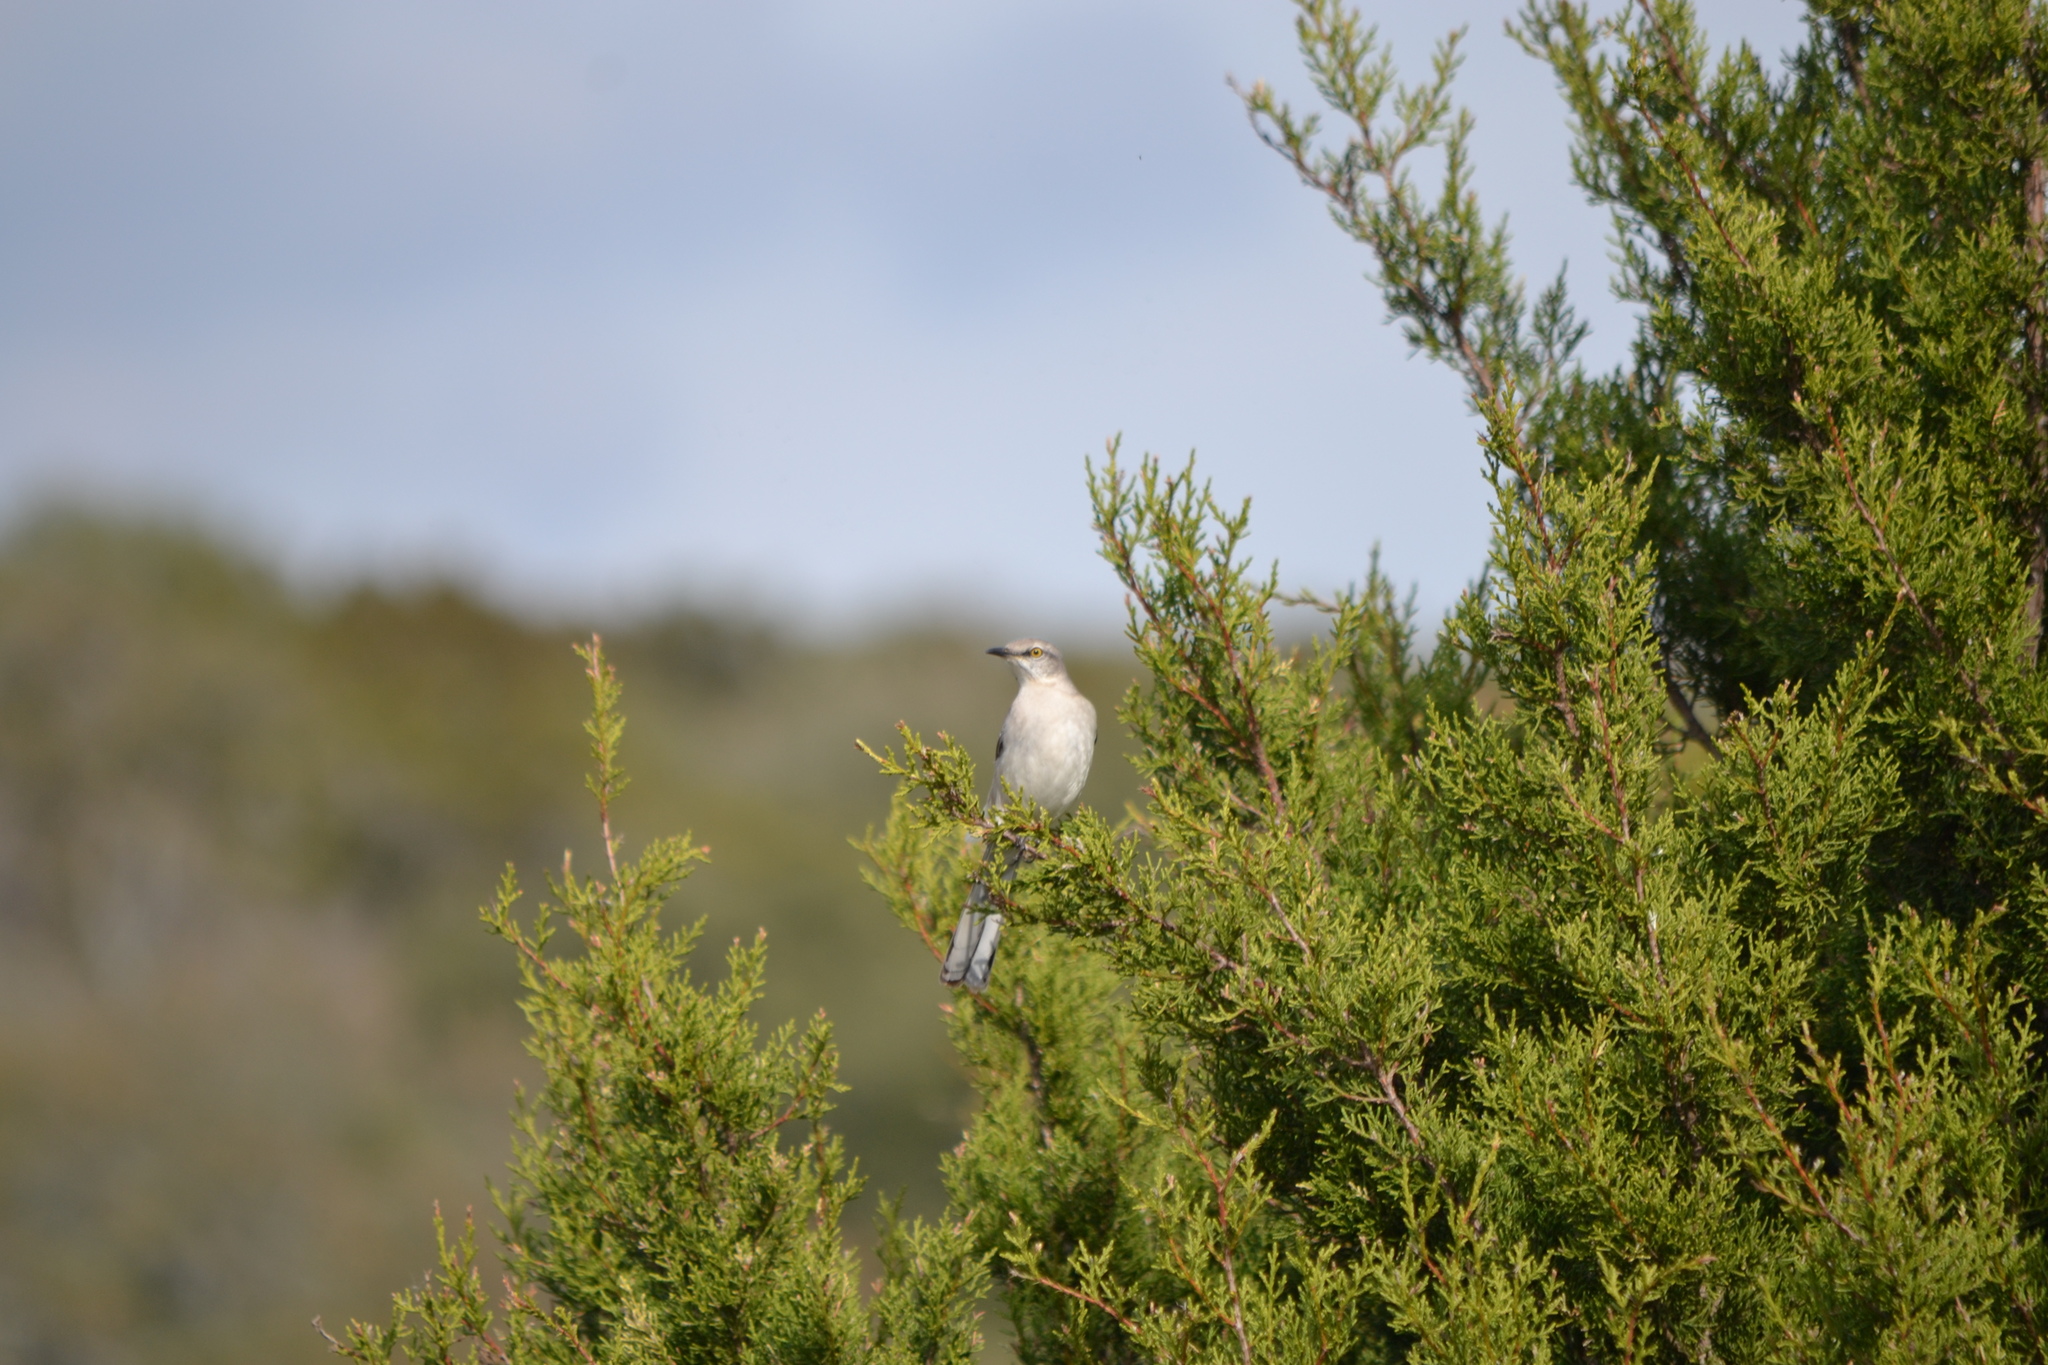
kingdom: Animalia
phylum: Chordata
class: Aves
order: Passeriformes
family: Mimidae
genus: Mimus
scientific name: Mimus polyglottos
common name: Northern mockingbird
